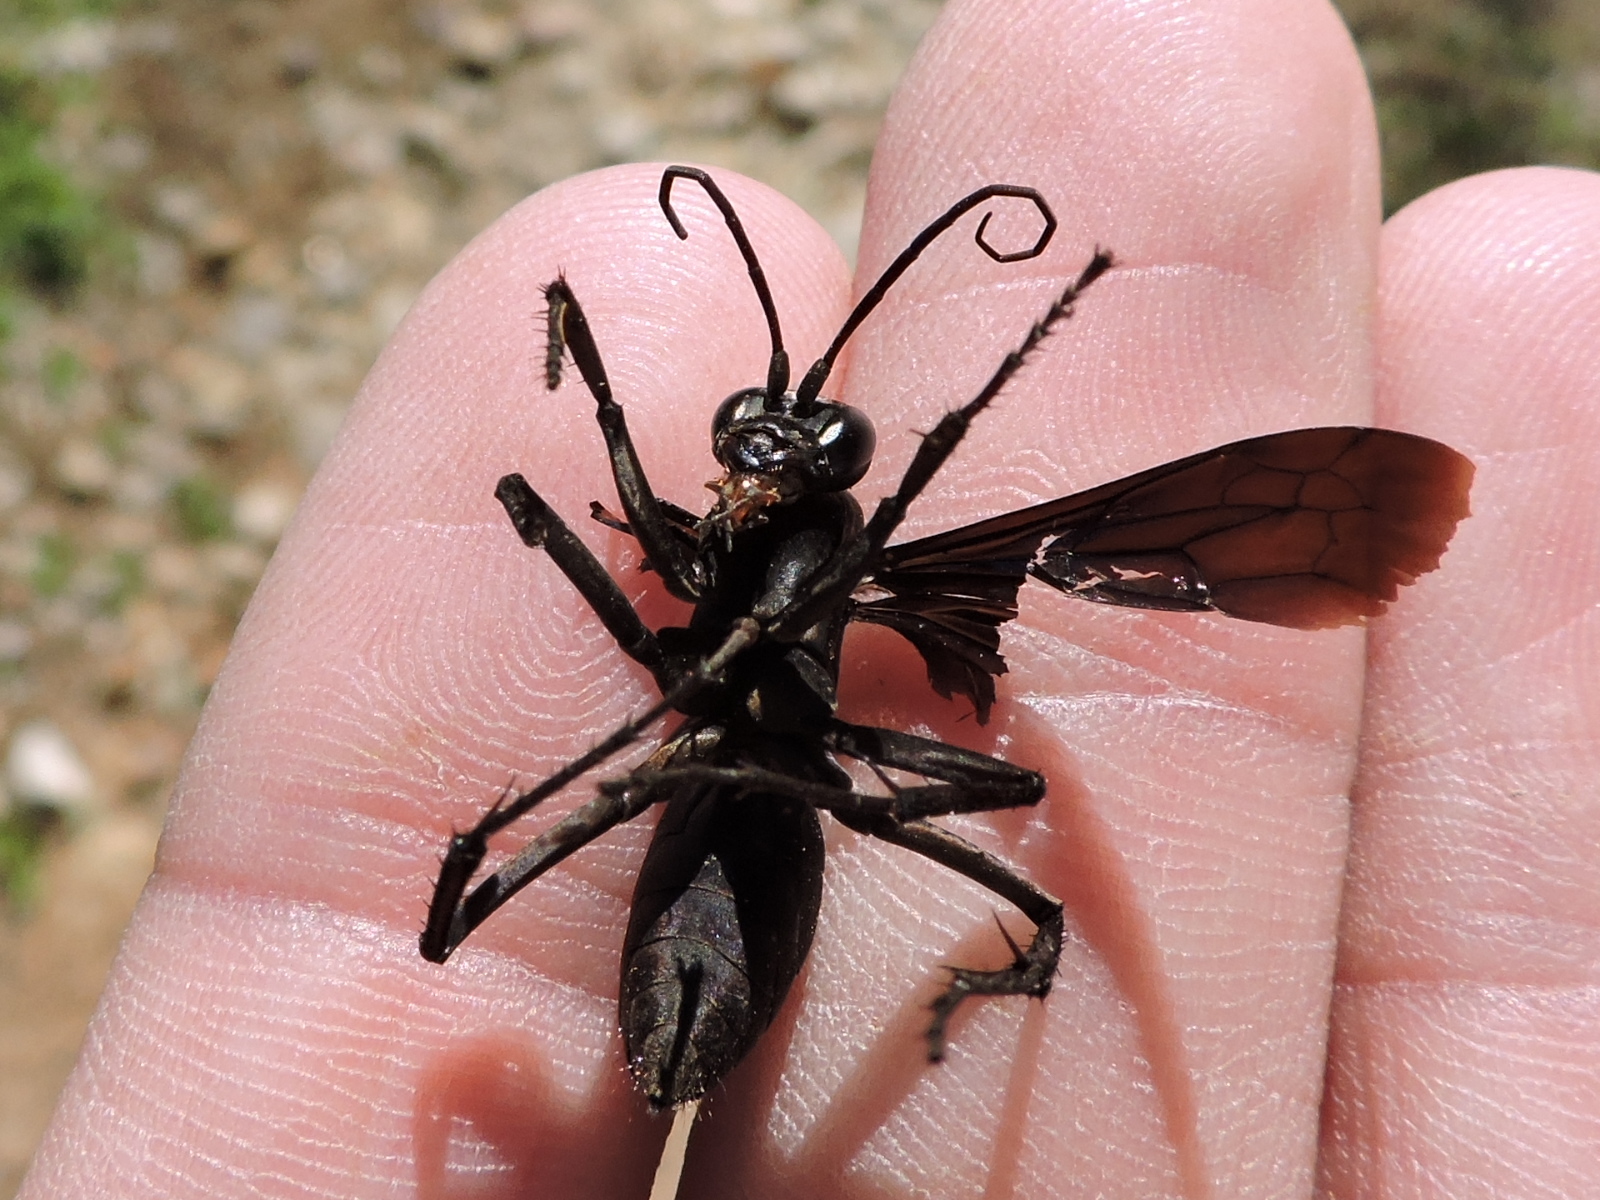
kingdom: Animalia
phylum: Arthropoda
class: Insecta
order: Hymenoptera
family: Pompilidae
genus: Anoplius
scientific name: Anoplius depressipes
